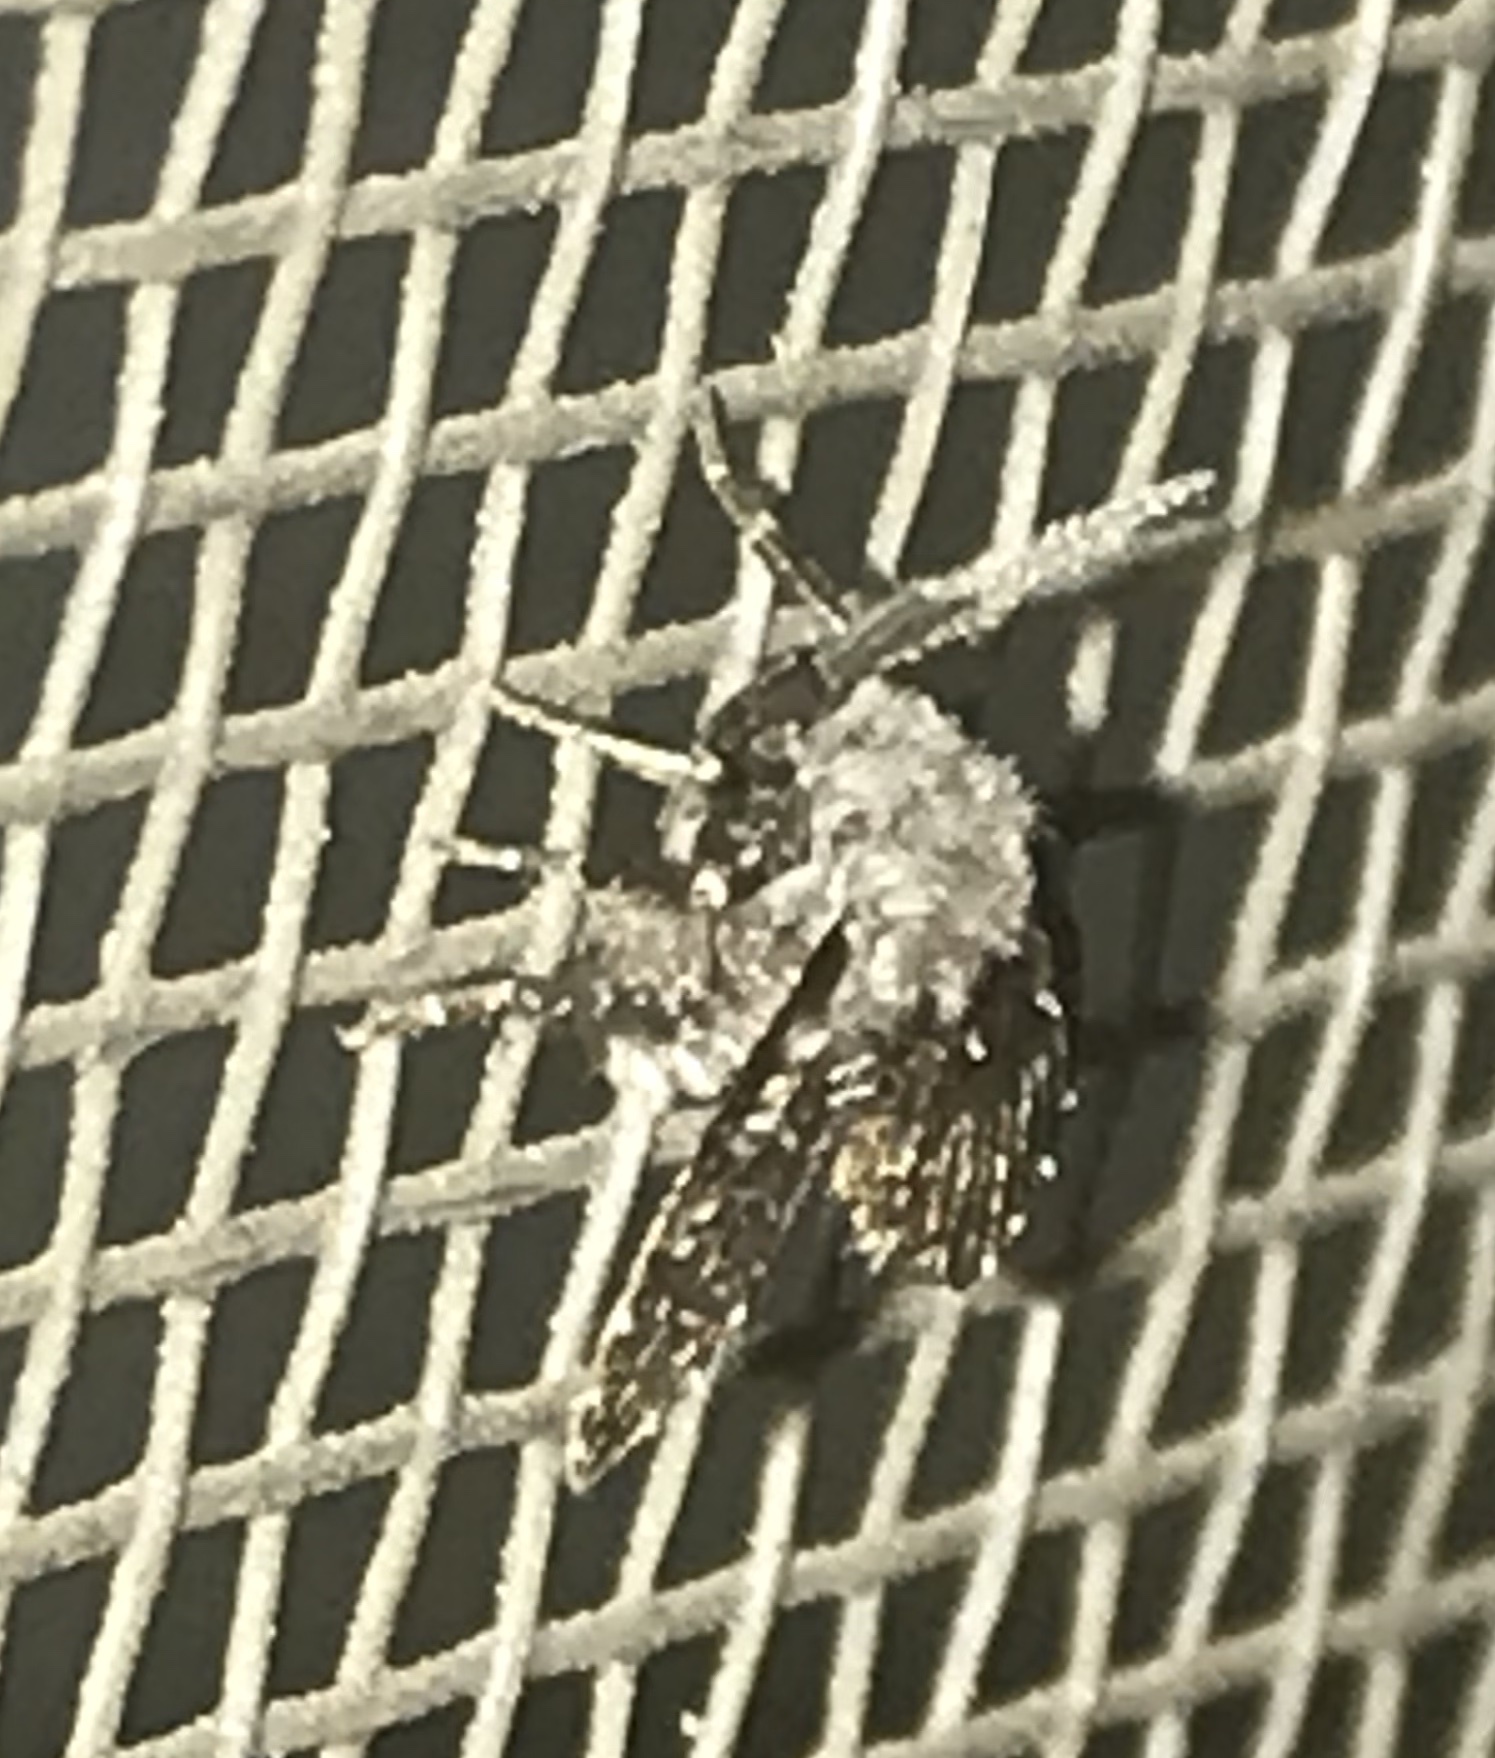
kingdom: Animalia
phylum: Arthropoda
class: Insecta
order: Diptera
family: Psychodidae
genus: Clogmia
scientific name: Clogmia albipunctatus
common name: White-spotted moth fly
